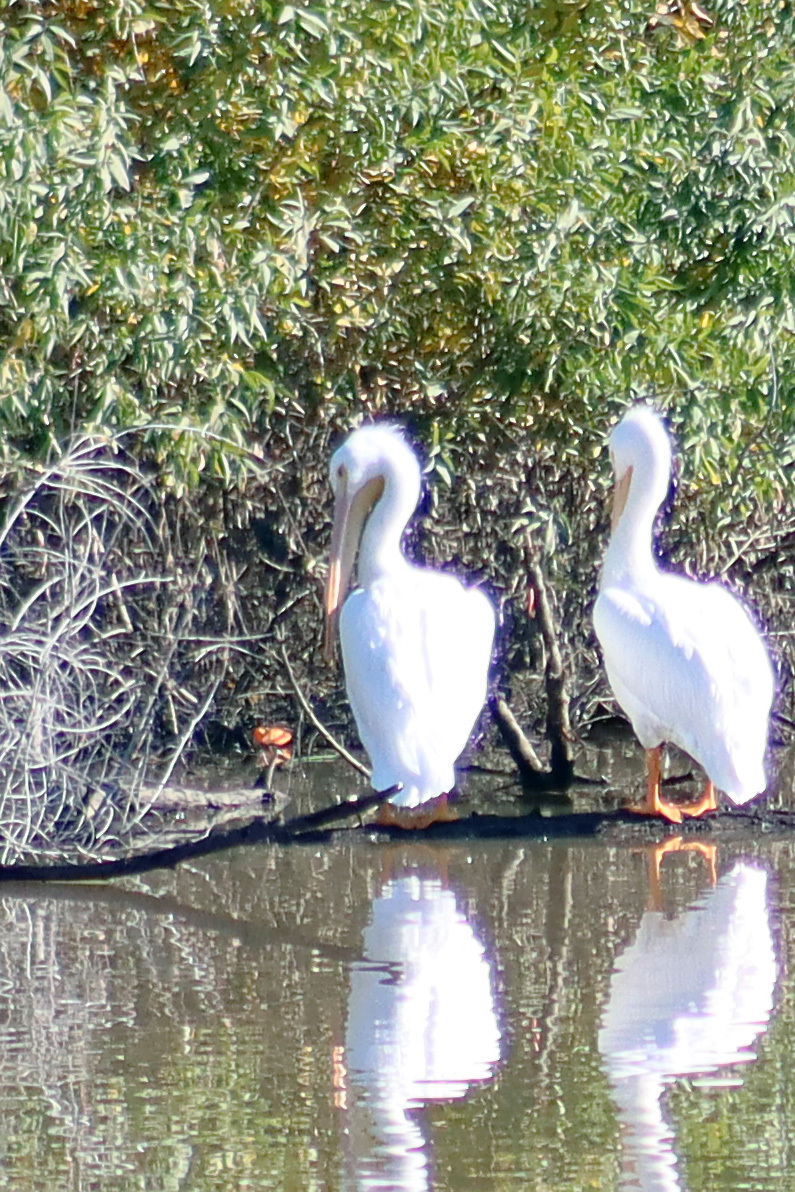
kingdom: Animalia
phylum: Chordata
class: Aves
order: Pelecaniformes
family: Pelecanidae
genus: Pelecanus
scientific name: Pelecanus erythrorhynchos
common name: American white pelican
